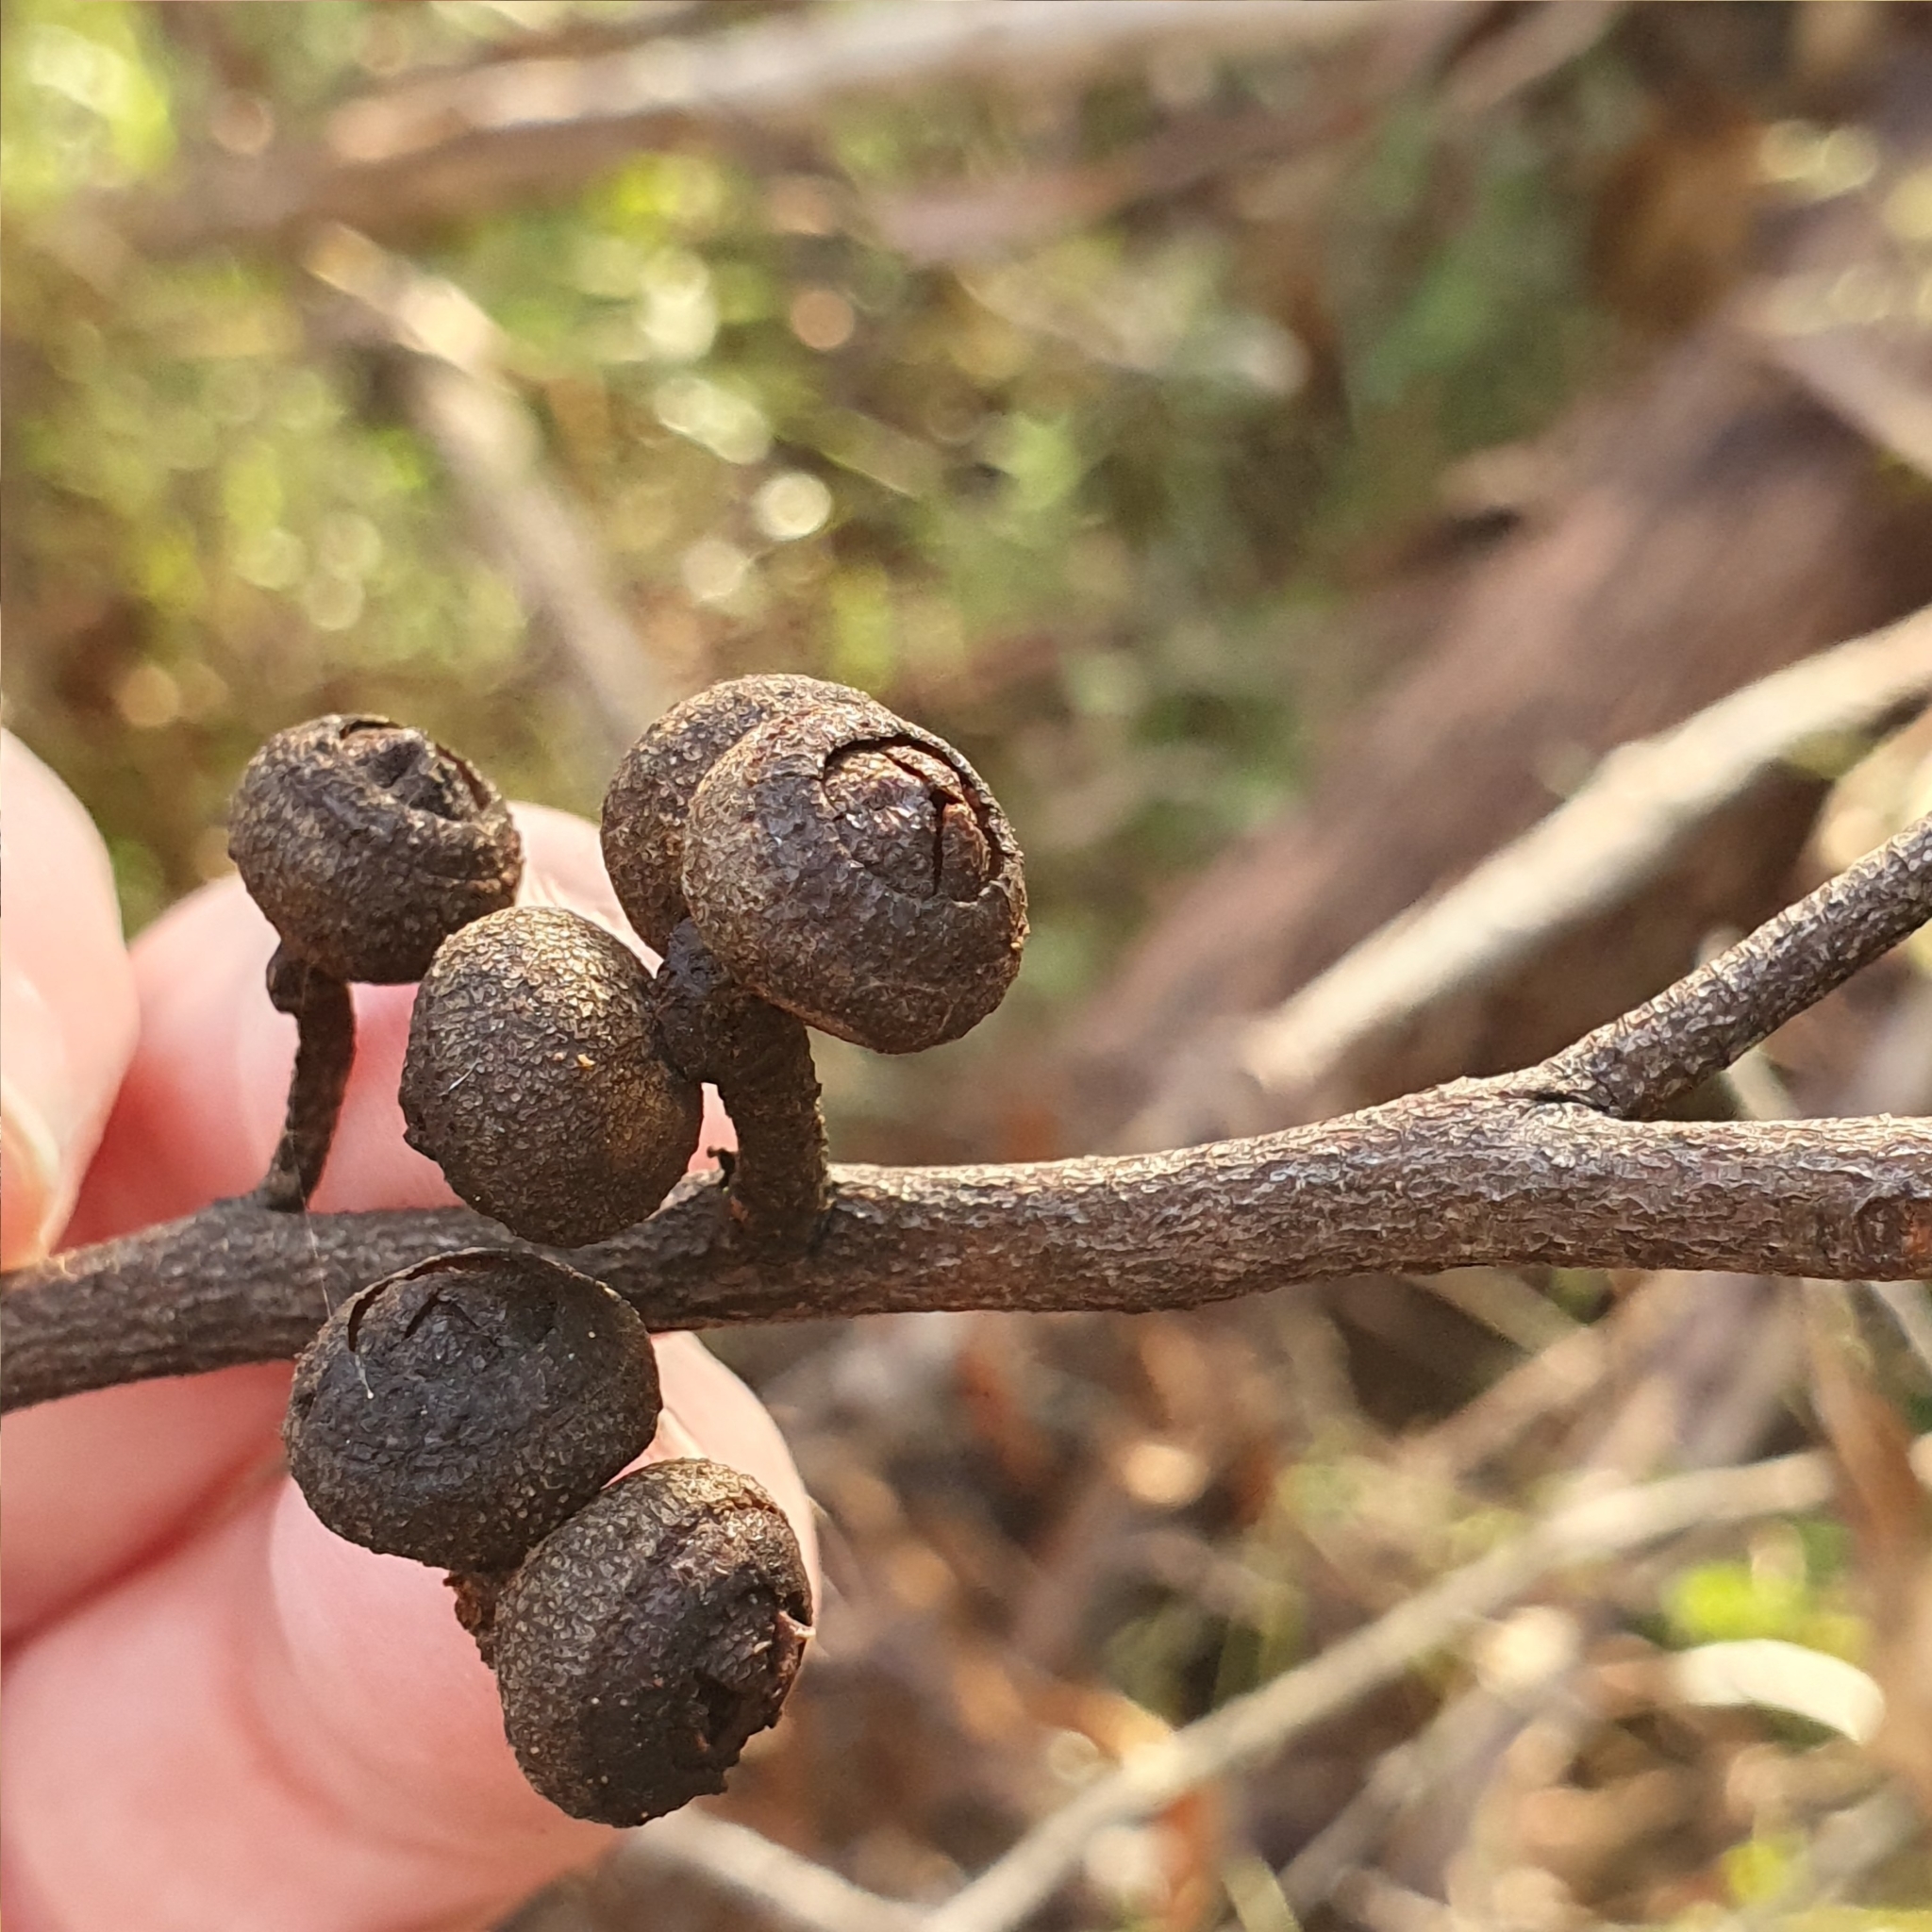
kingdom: Plantae
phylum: Tracheophyta
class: Magnoliopsida
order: Myrtales
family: Myrtaceae
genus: Eucalyptus
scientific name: Eucalyptus blaxlandii
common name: Blaxland's stringybark
